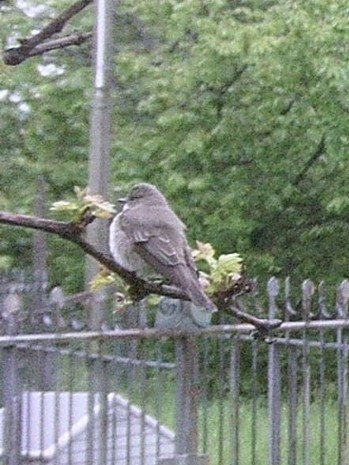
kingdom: Animalia
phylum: Chordata
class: Aves
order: Passeriformes
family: Muscicapidae
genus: Muscicapa
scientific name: Muscicapa striata
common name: Spotted flycatcher
